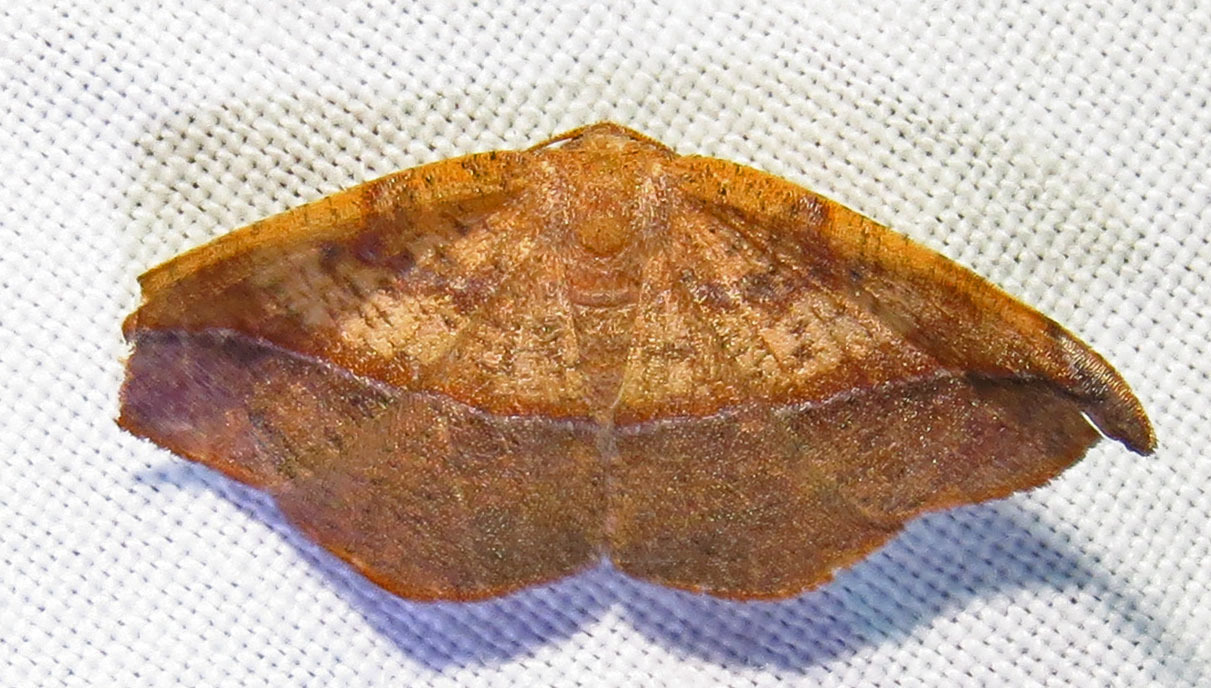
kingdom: Animalia
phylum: Arthropoda
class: Insecta
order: Lepidoptera
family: Geometridae
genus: Patalene
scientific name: Patalene olyzonaria
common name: Juniper geometer moth
